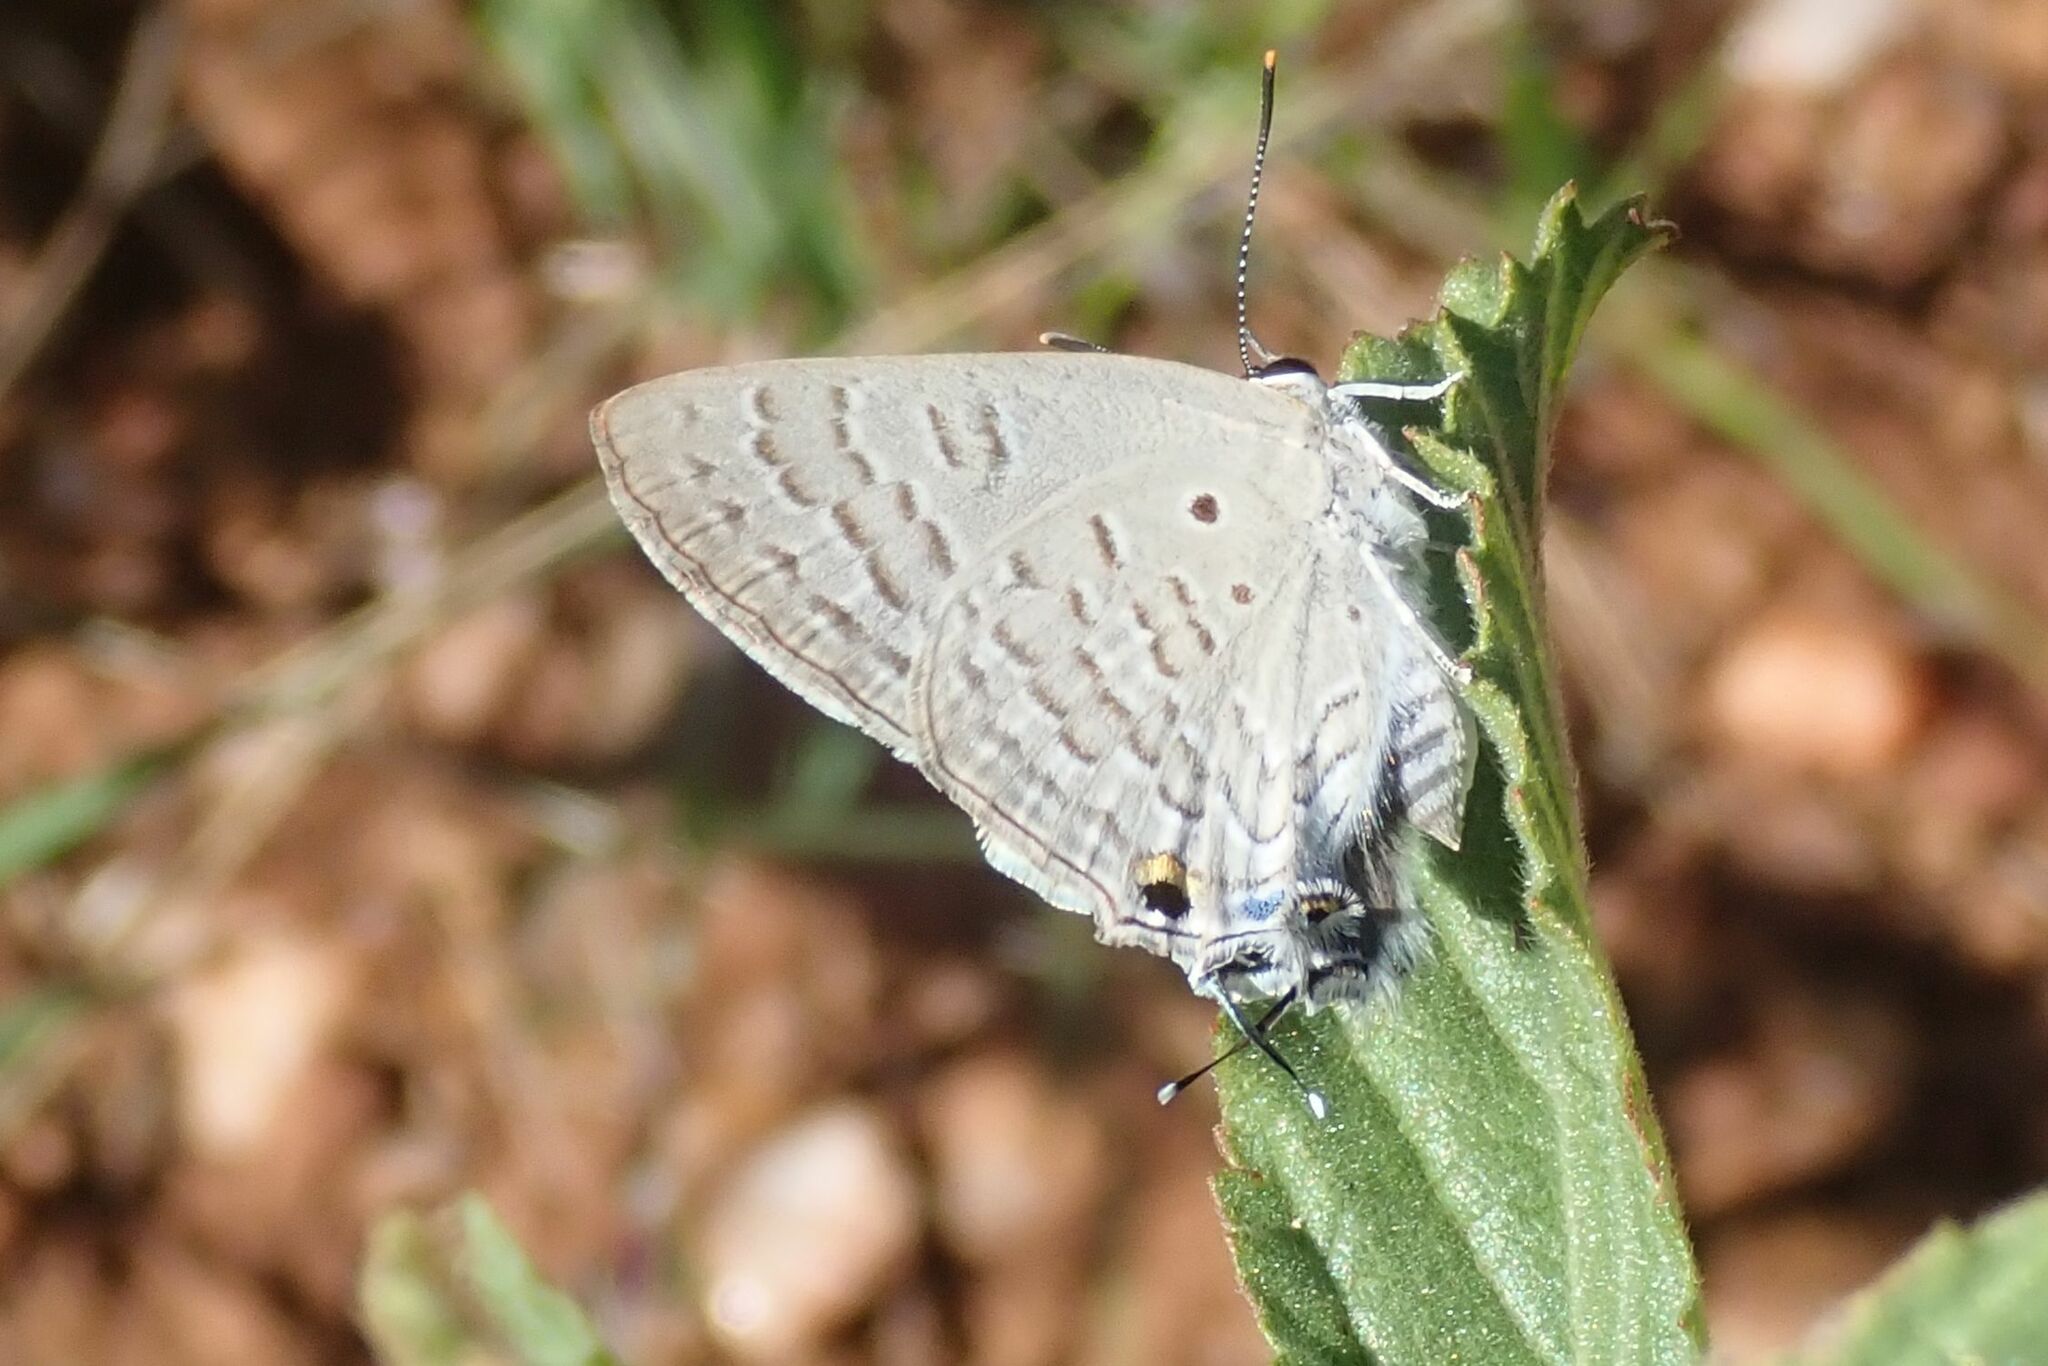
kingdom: Animalia
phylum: Arthropoda
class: Insecta
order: Lepidoptera
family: Lycaenidae
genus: Deudorix
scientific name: Deudorix antalus
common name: Brown playboy
